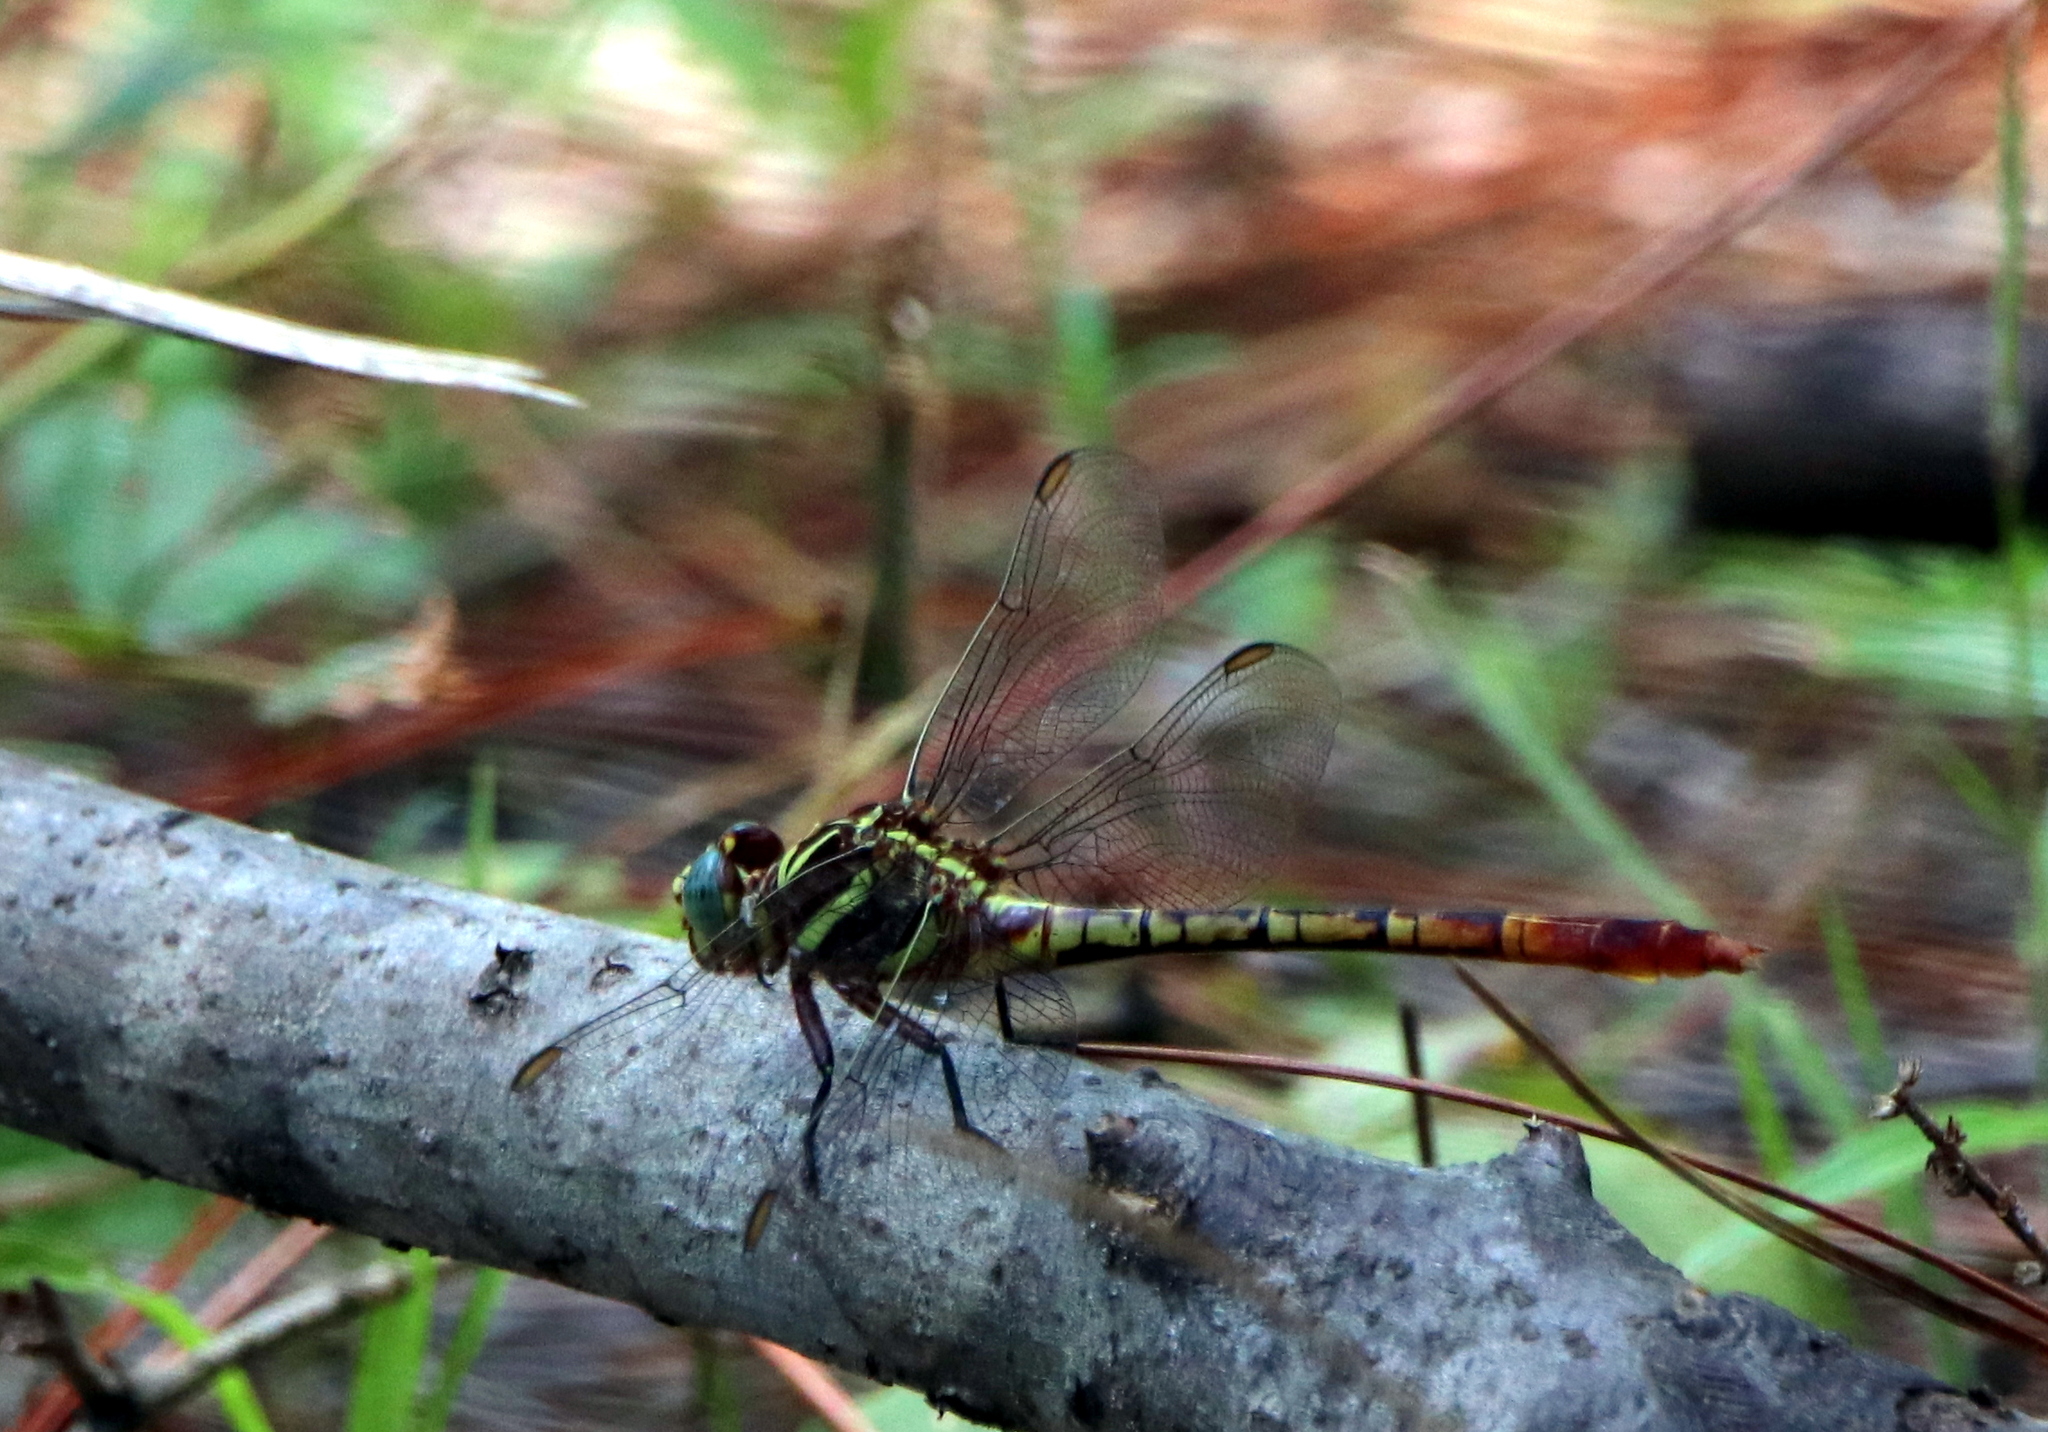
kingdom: Animalia
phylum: Arthropoda
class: Insecta
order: Odonata
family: Gomphidae
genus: Aphylla
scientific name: Aphylla williamsoni
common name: Two-striped forceptail
